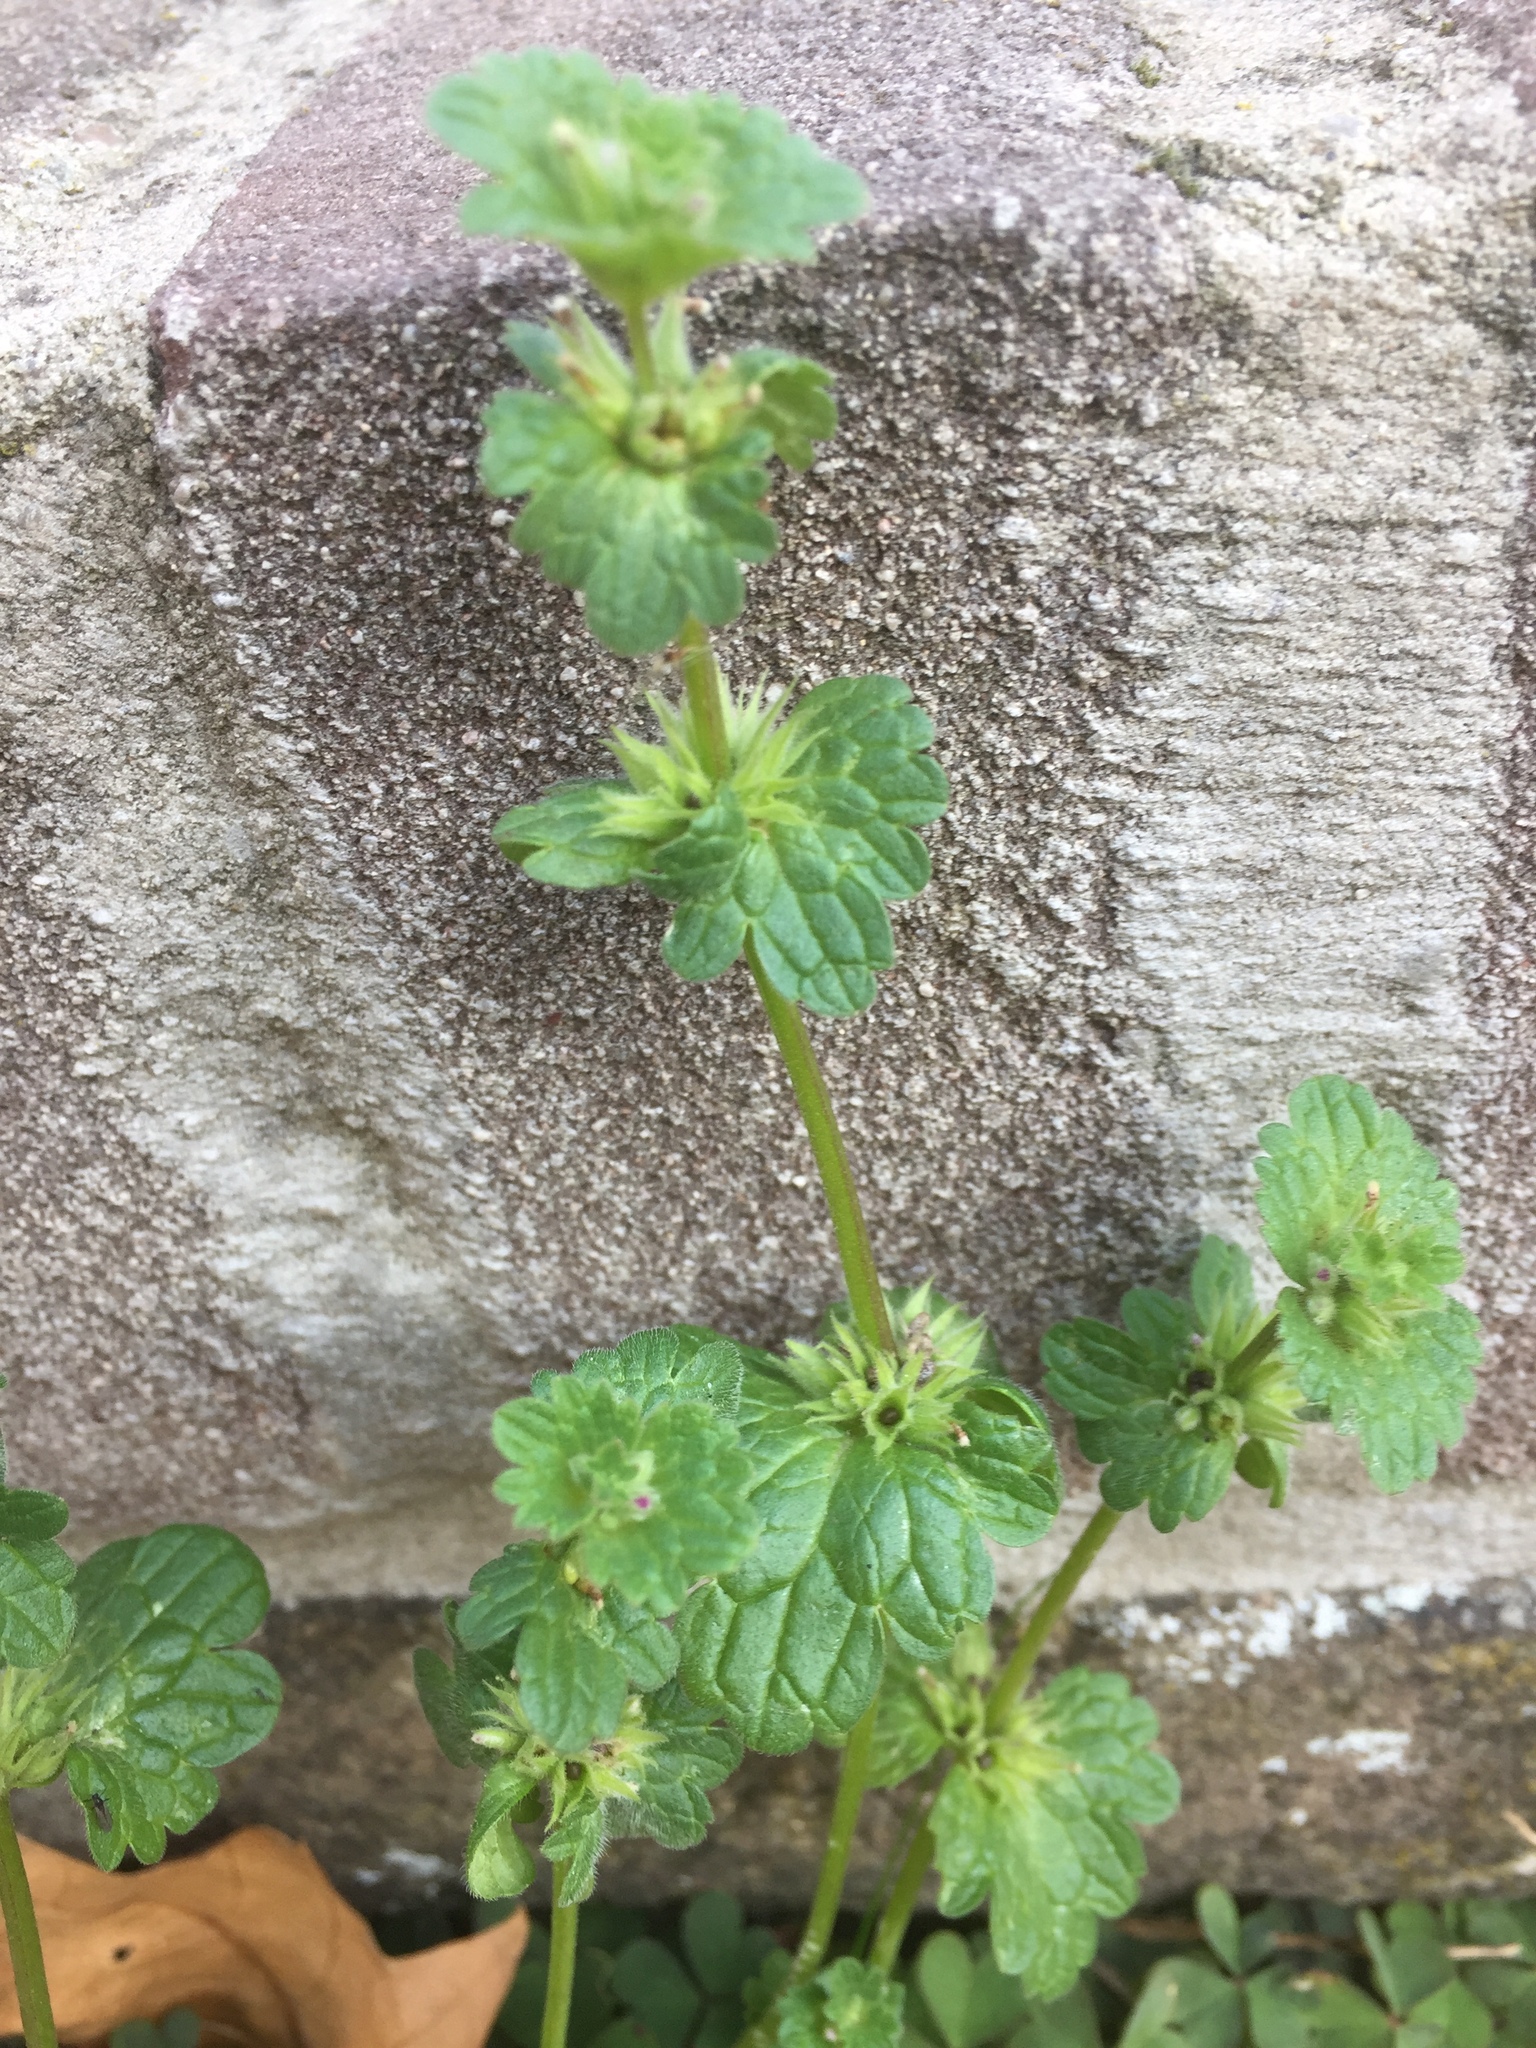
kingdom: Plantae
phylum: Tracheophyta
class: Magnoliopsida
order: Lamiales
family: Lamiaceae
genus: Lamium
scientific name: Lamium amplexicaule
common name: Henbit dead-nettle
